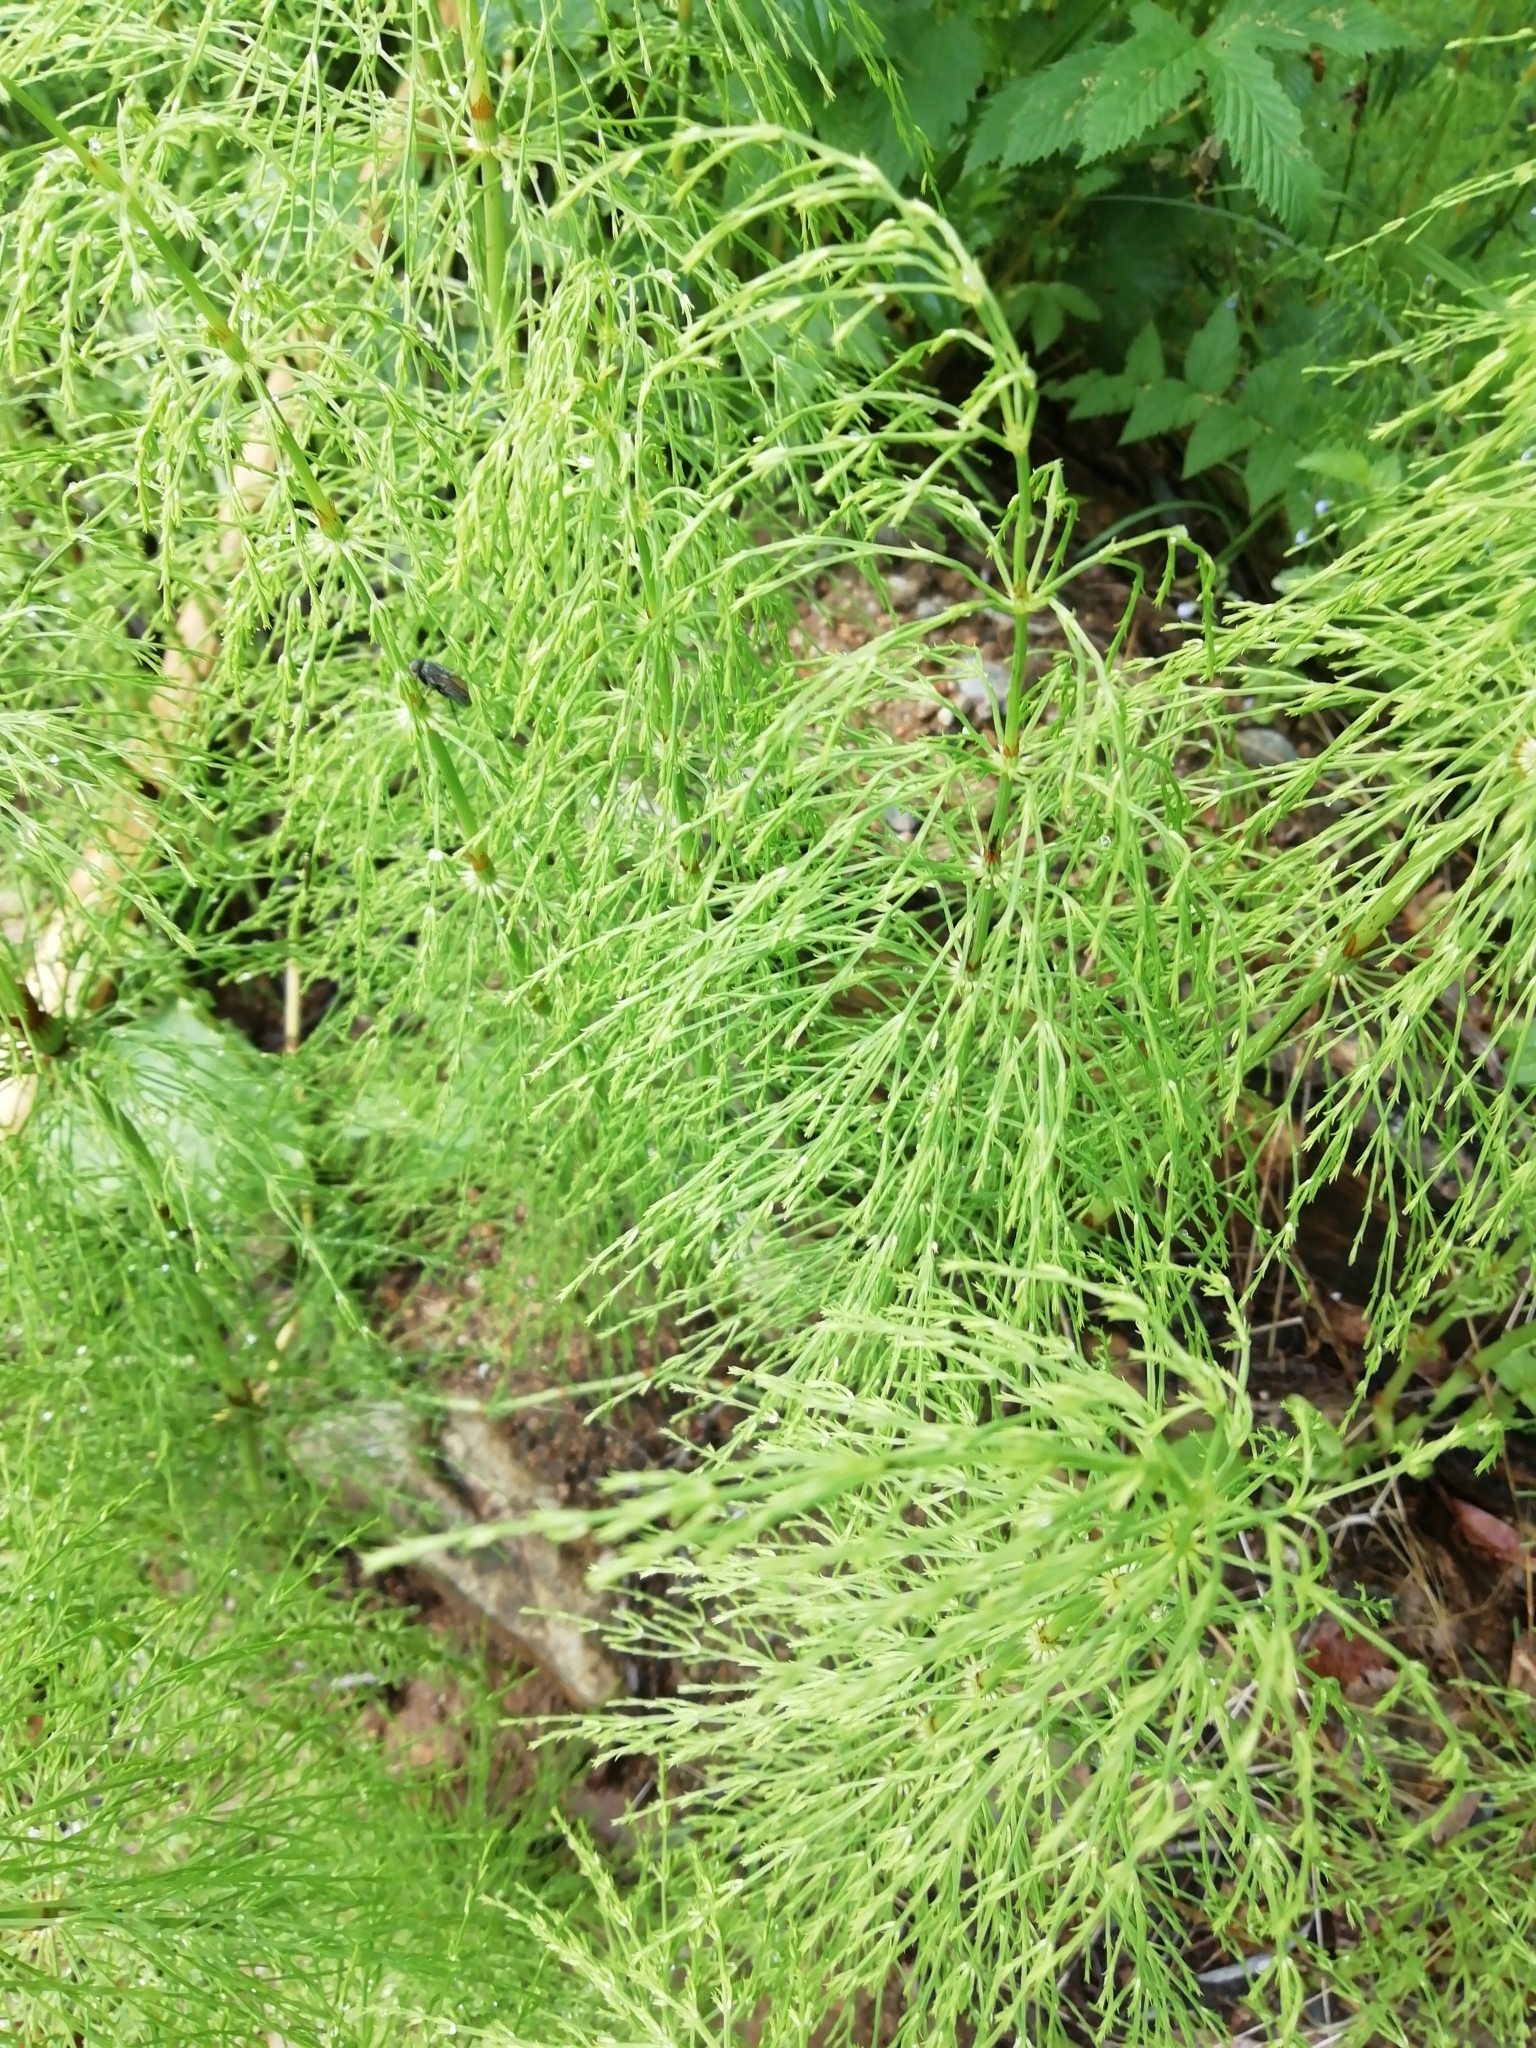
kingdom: Plantae
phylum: Tracheophyta
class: Polypodiopsida
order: Equisetales
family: Equisetaceae
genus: Equisetum
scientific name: Equisetum sylvaticum
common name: Wood horsetail
